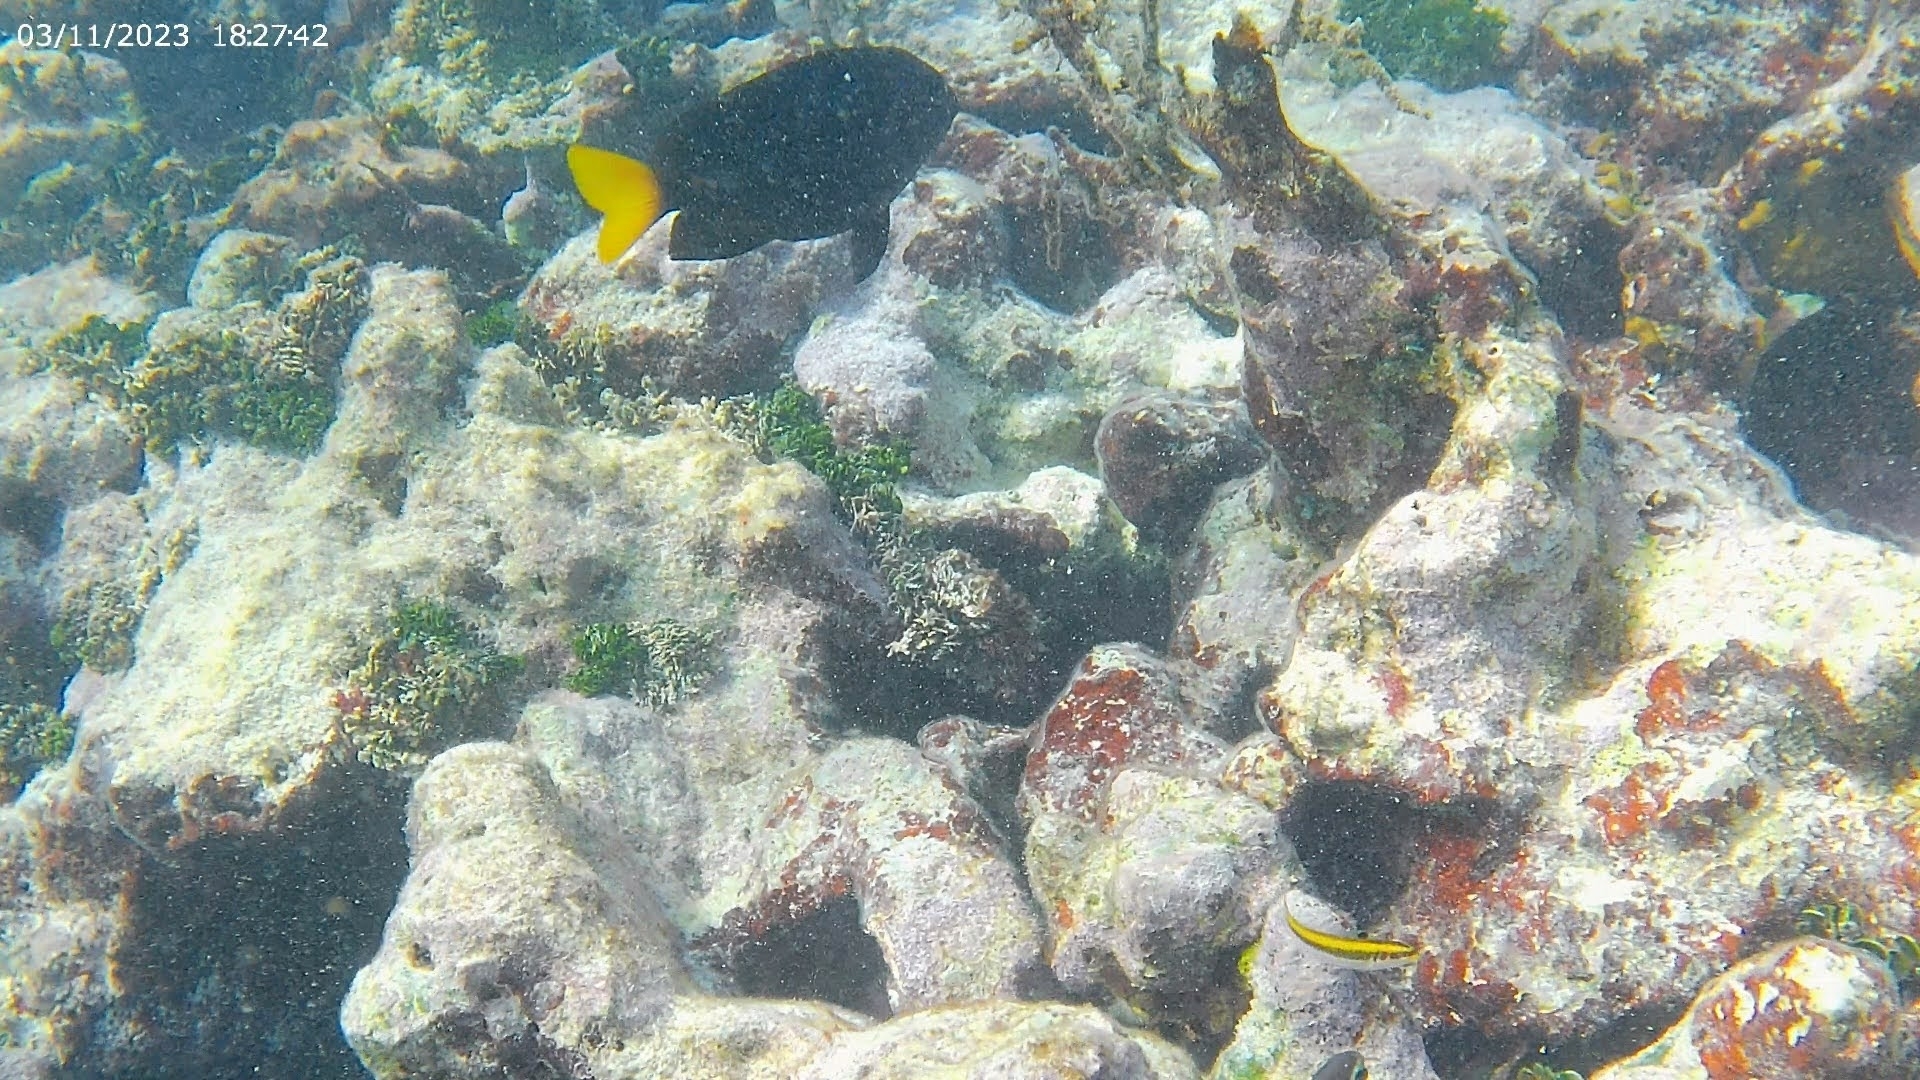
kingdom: Animalia
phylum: Chordata
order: Perciformes
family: Labridae
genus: Thalassoma
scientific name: Thalassoma bifasciatum
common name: Bluehead wrasse
